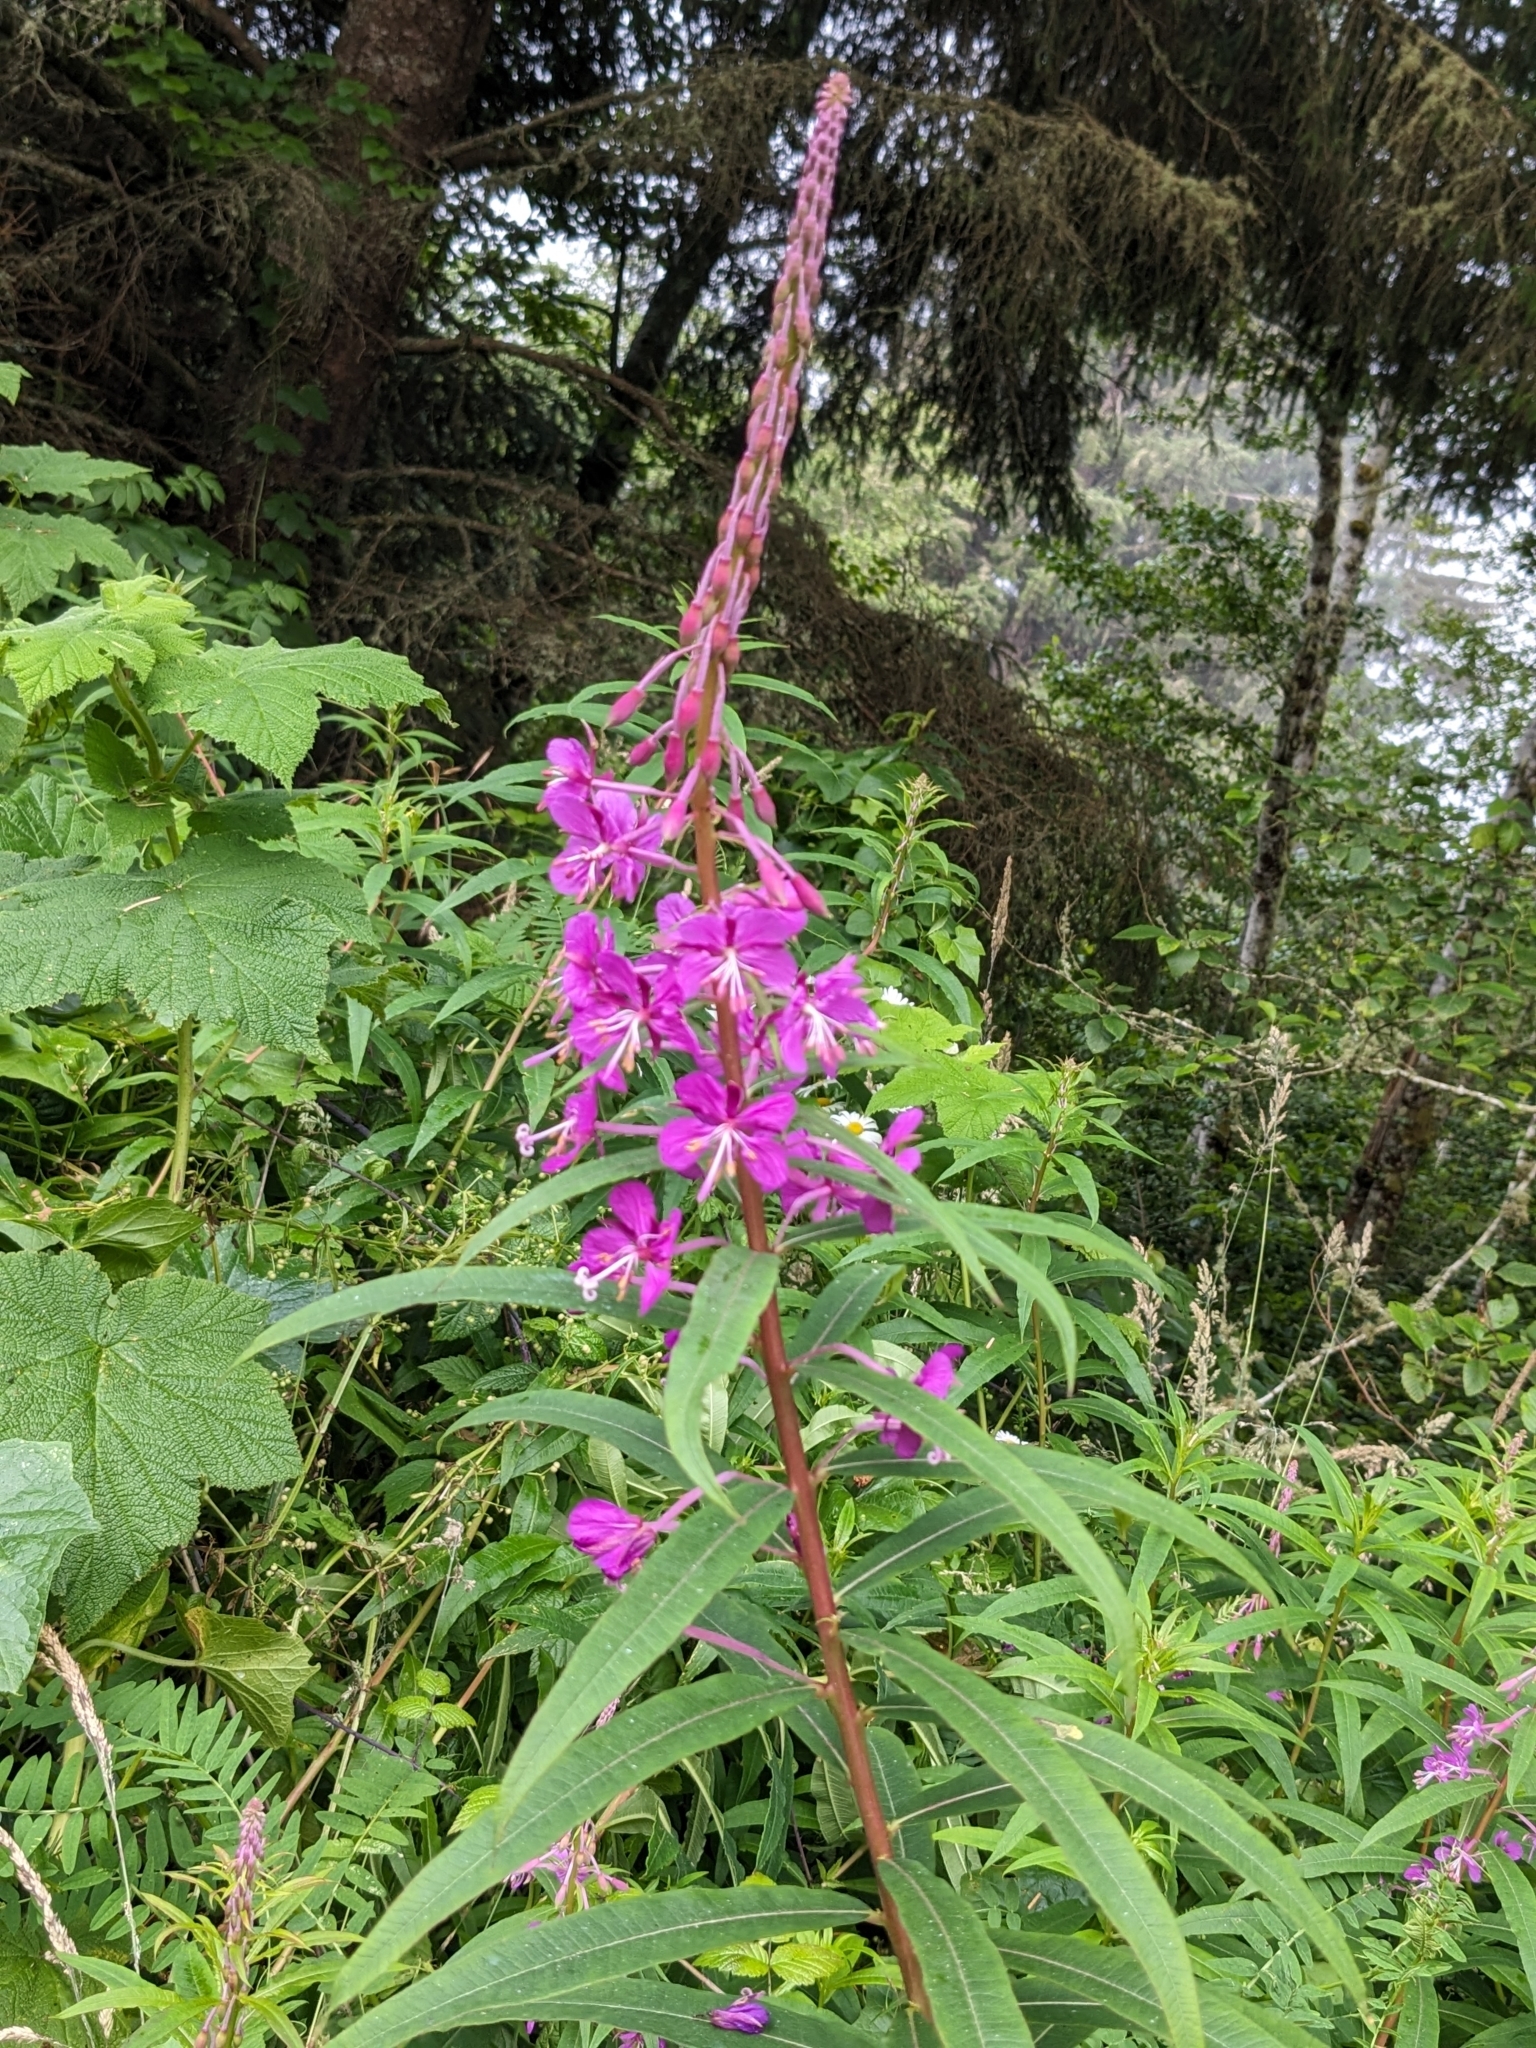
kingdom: Plantae
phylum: Tracheophyta
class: Magnoliopsida
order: Myrtales
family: Onagraceae
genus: Chamaenerion
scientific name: Chamaenerion angustifolium
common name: Fireweed
